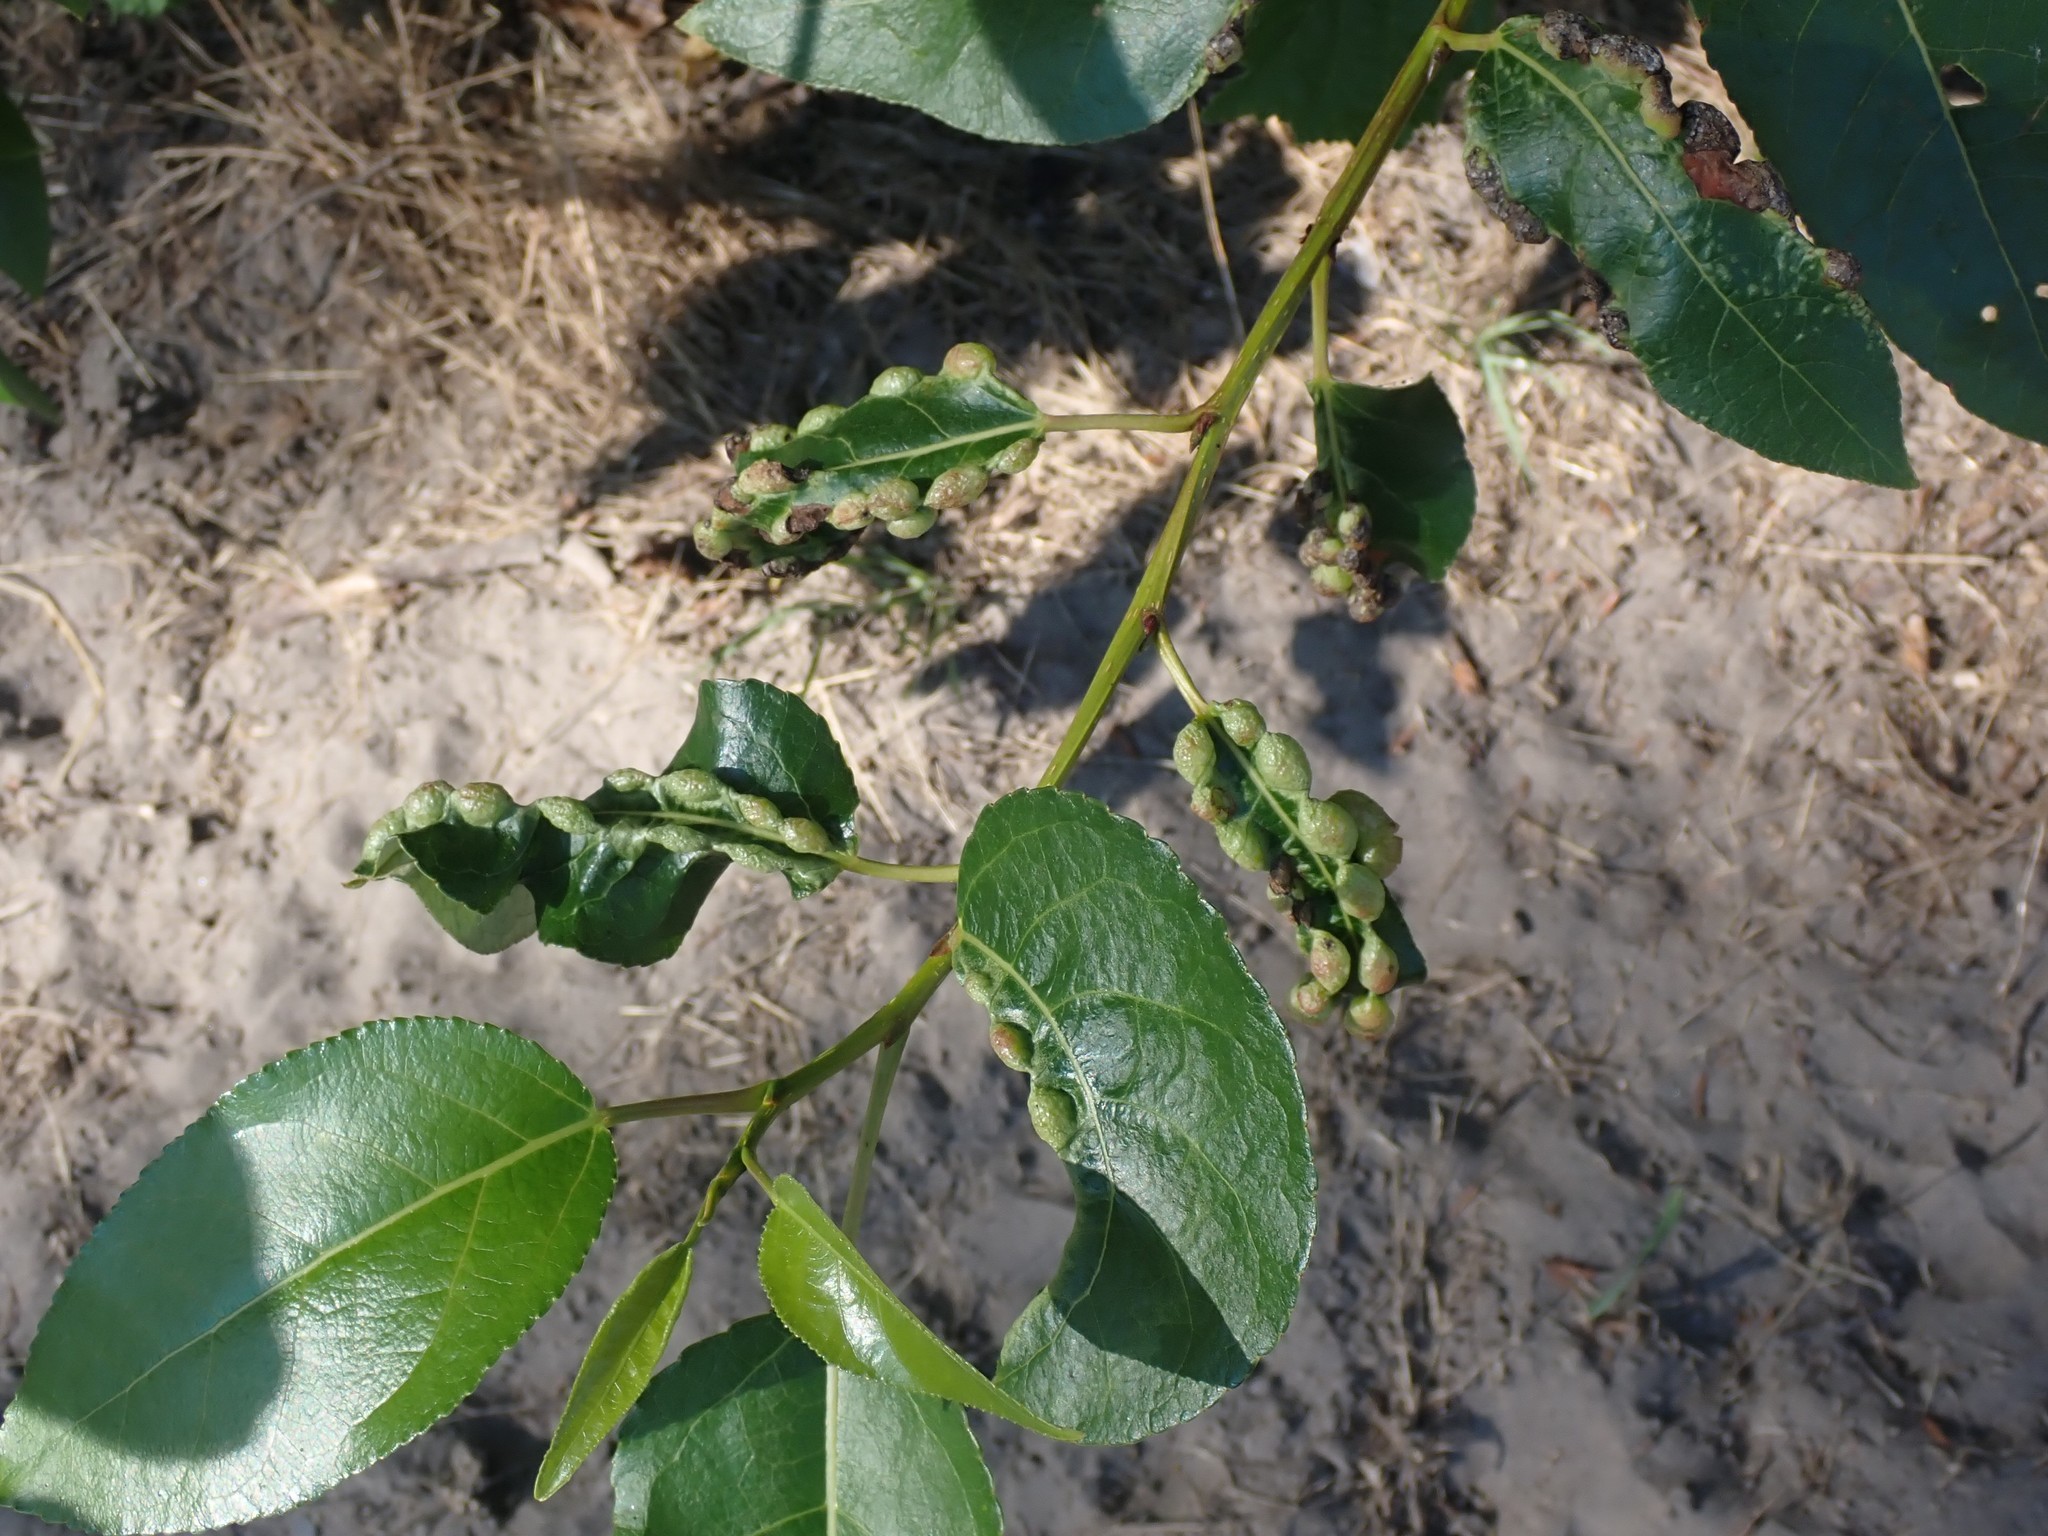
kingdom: Animalia
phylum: Arthropoda
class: Insecta
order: Hemiptera
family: Aphididae
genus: Thecabius
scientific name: Thecabius populimonilis
